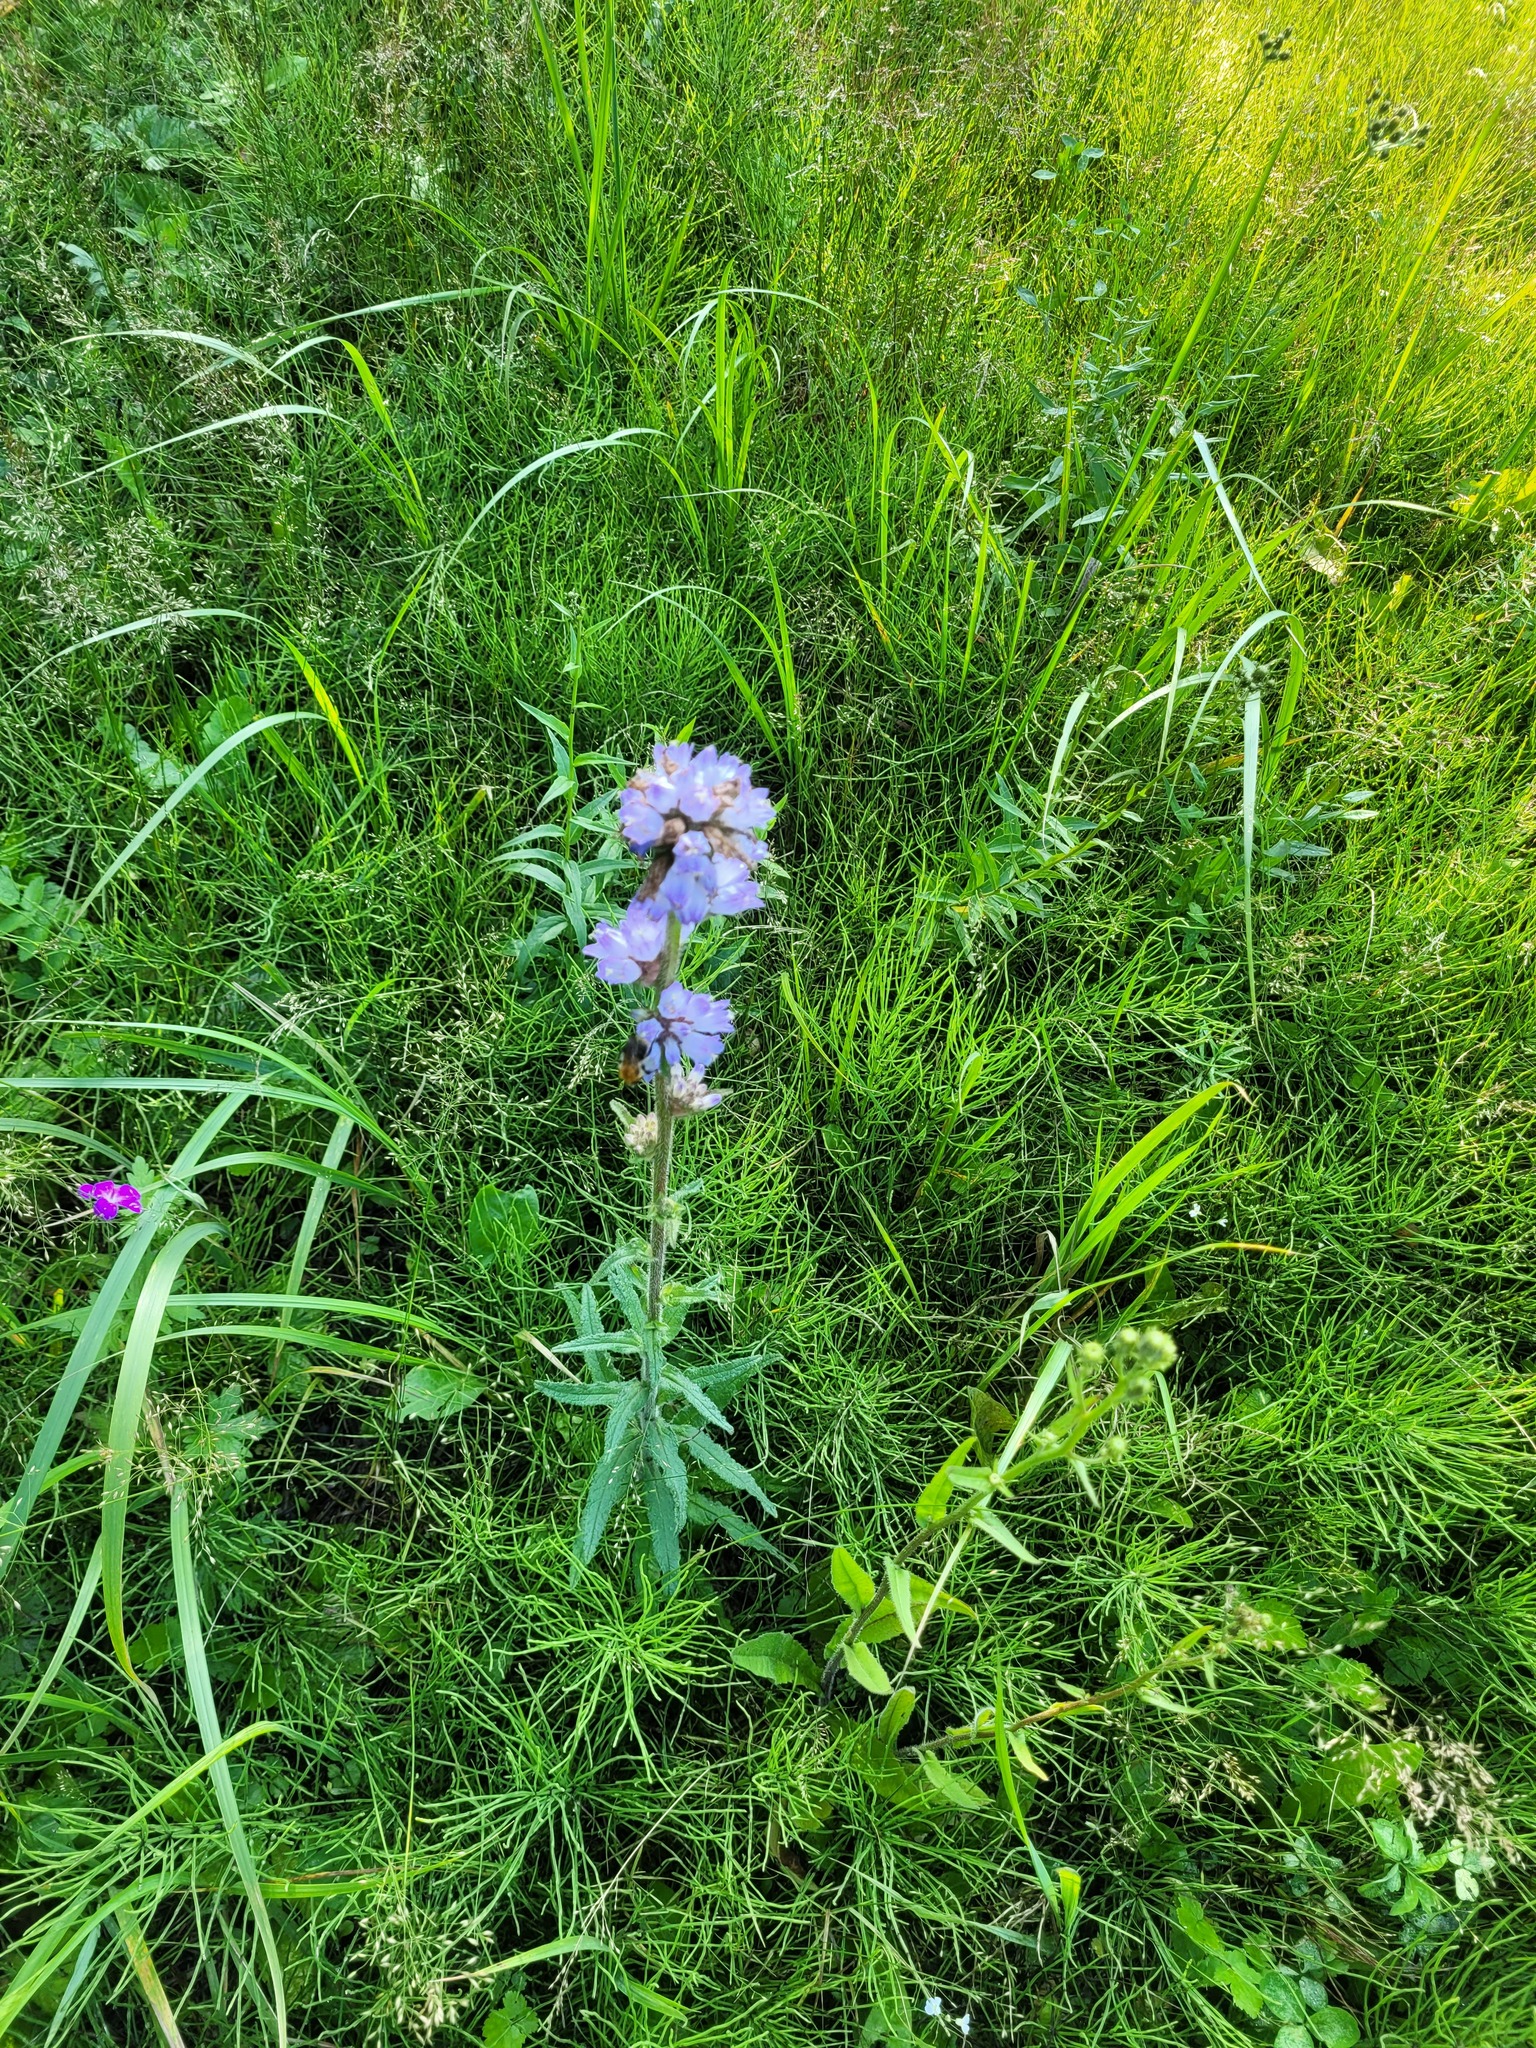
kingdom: Plantae
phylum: Tracheophyta
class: Magnoliopsida
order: Asterales
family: Campanulaceae
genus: Campanula
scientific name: Campanula cervicaria
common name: Bristly bellflower
